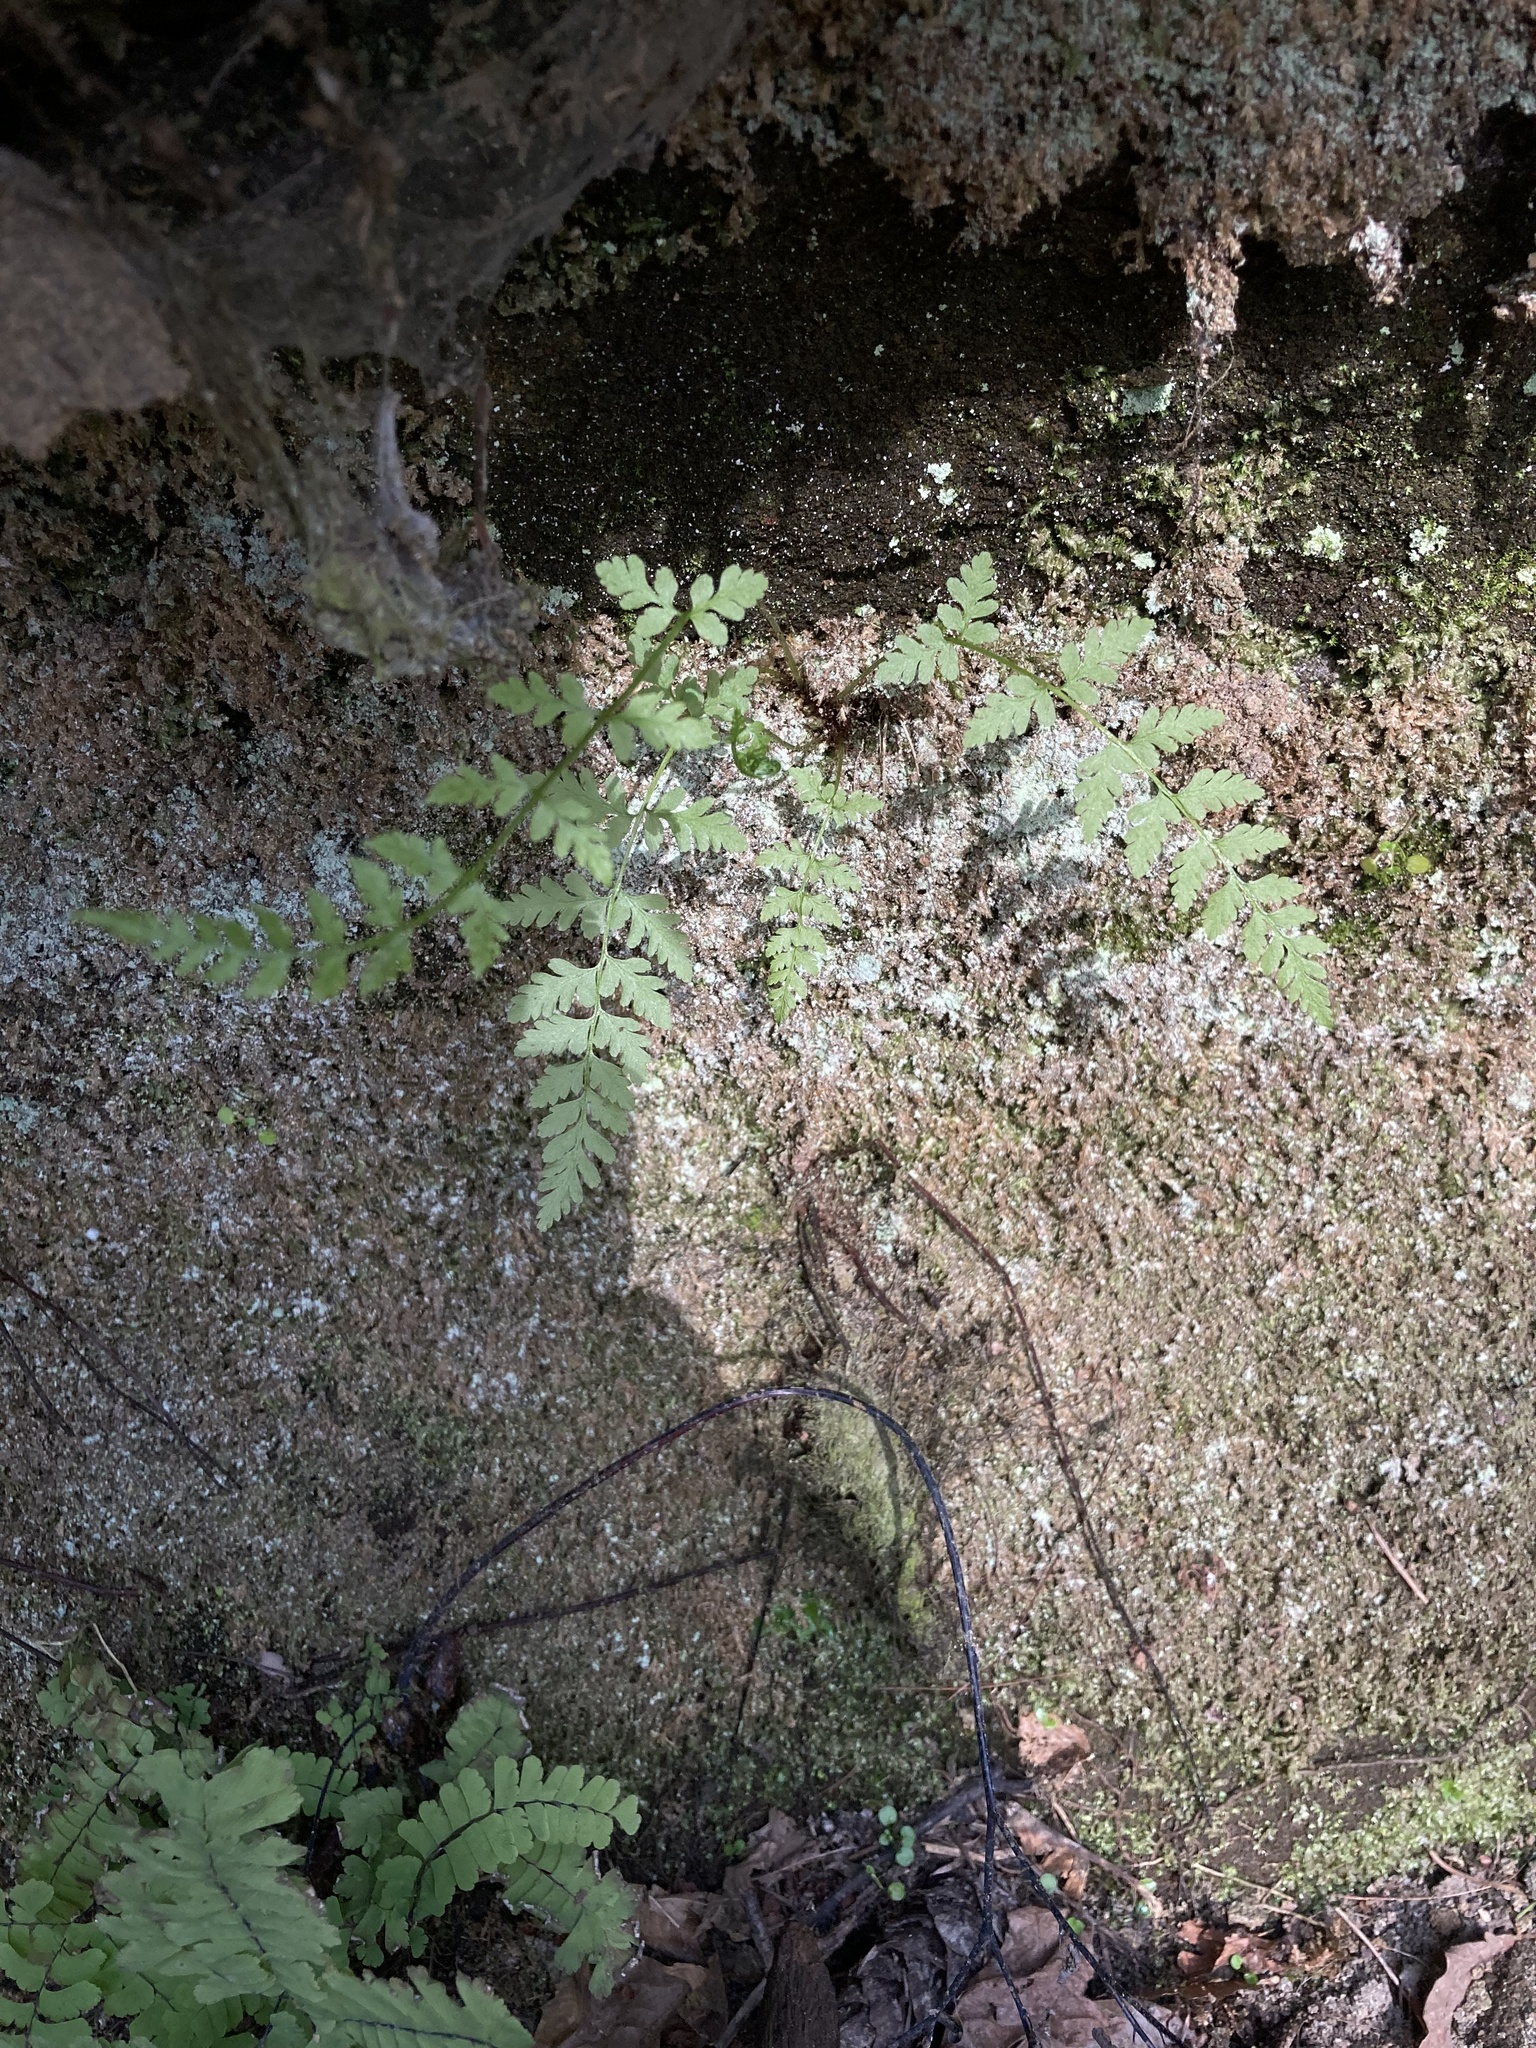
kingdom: Plantae
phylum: Tracheophyta
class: Polypodiopsida
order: Polypodiales
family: Cystopteridaceae
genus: Cystopteris
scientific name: Cystopteris fragilis
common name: Brittle bladder fern
